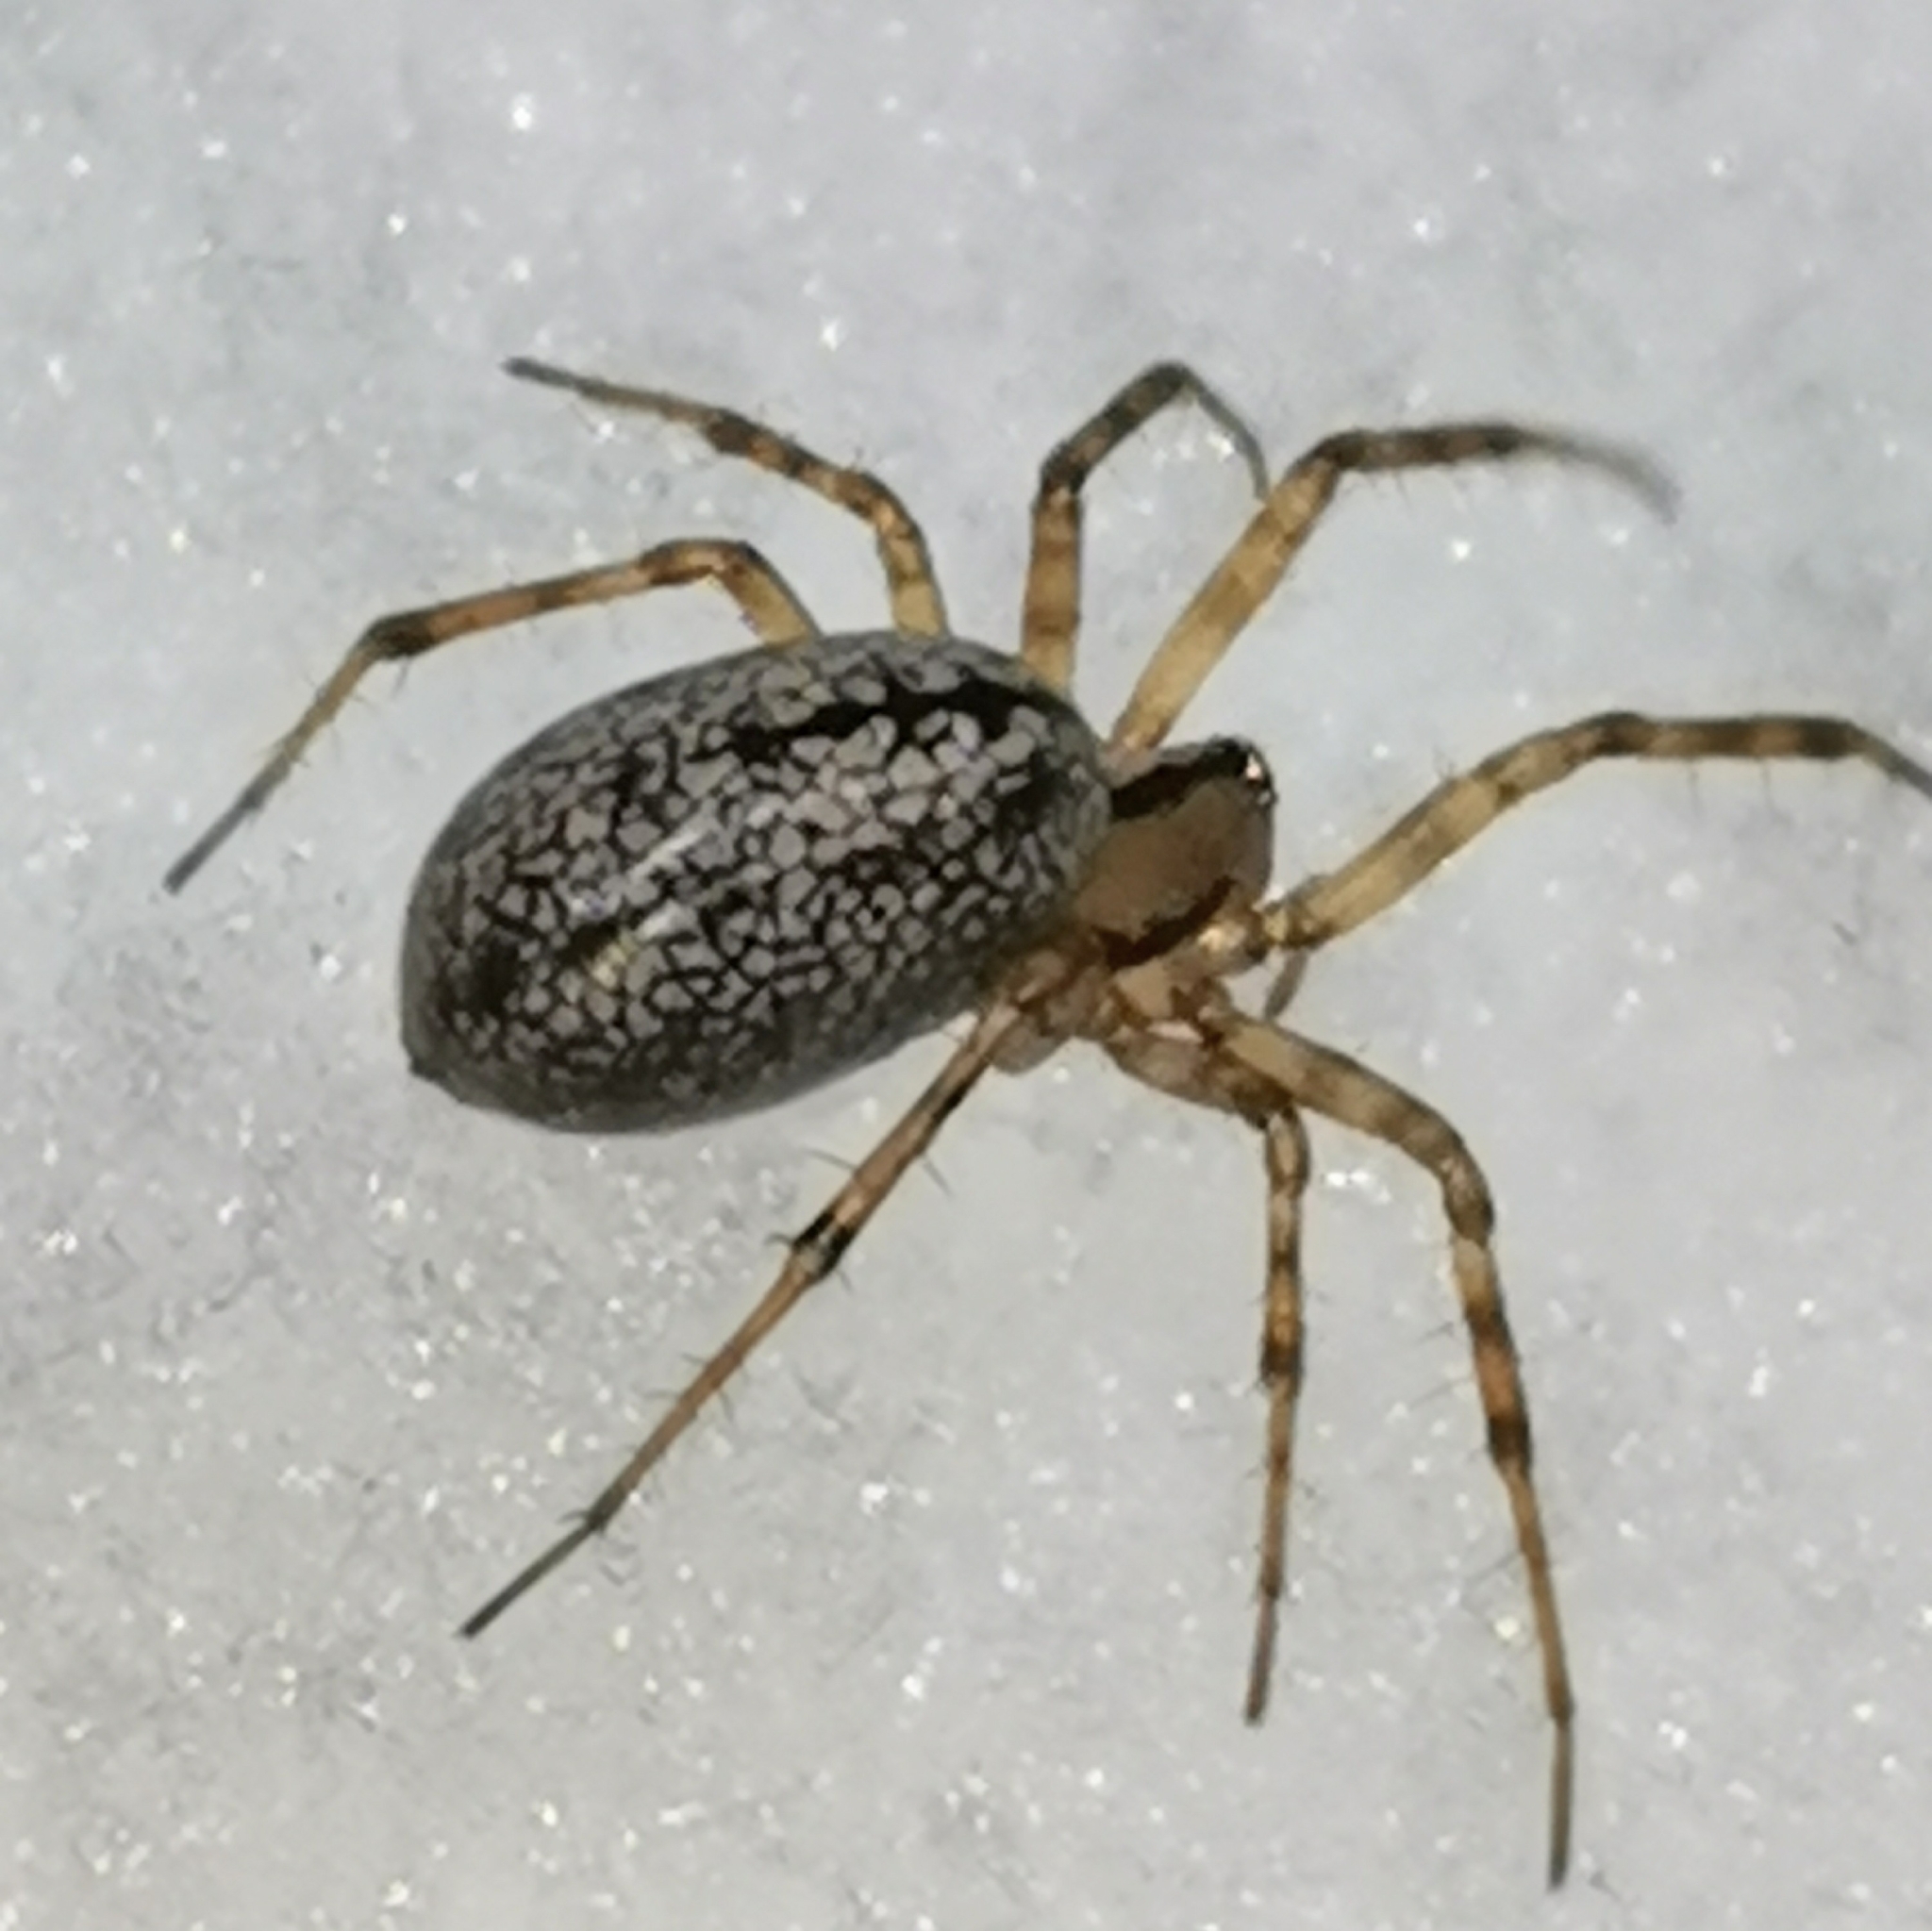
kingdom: Animalia
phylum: Arthropoda
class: Arachnida
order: Araneae
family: Linyphiidae
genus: Stemonyphantes
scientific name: Stemonyphantes lineatus
